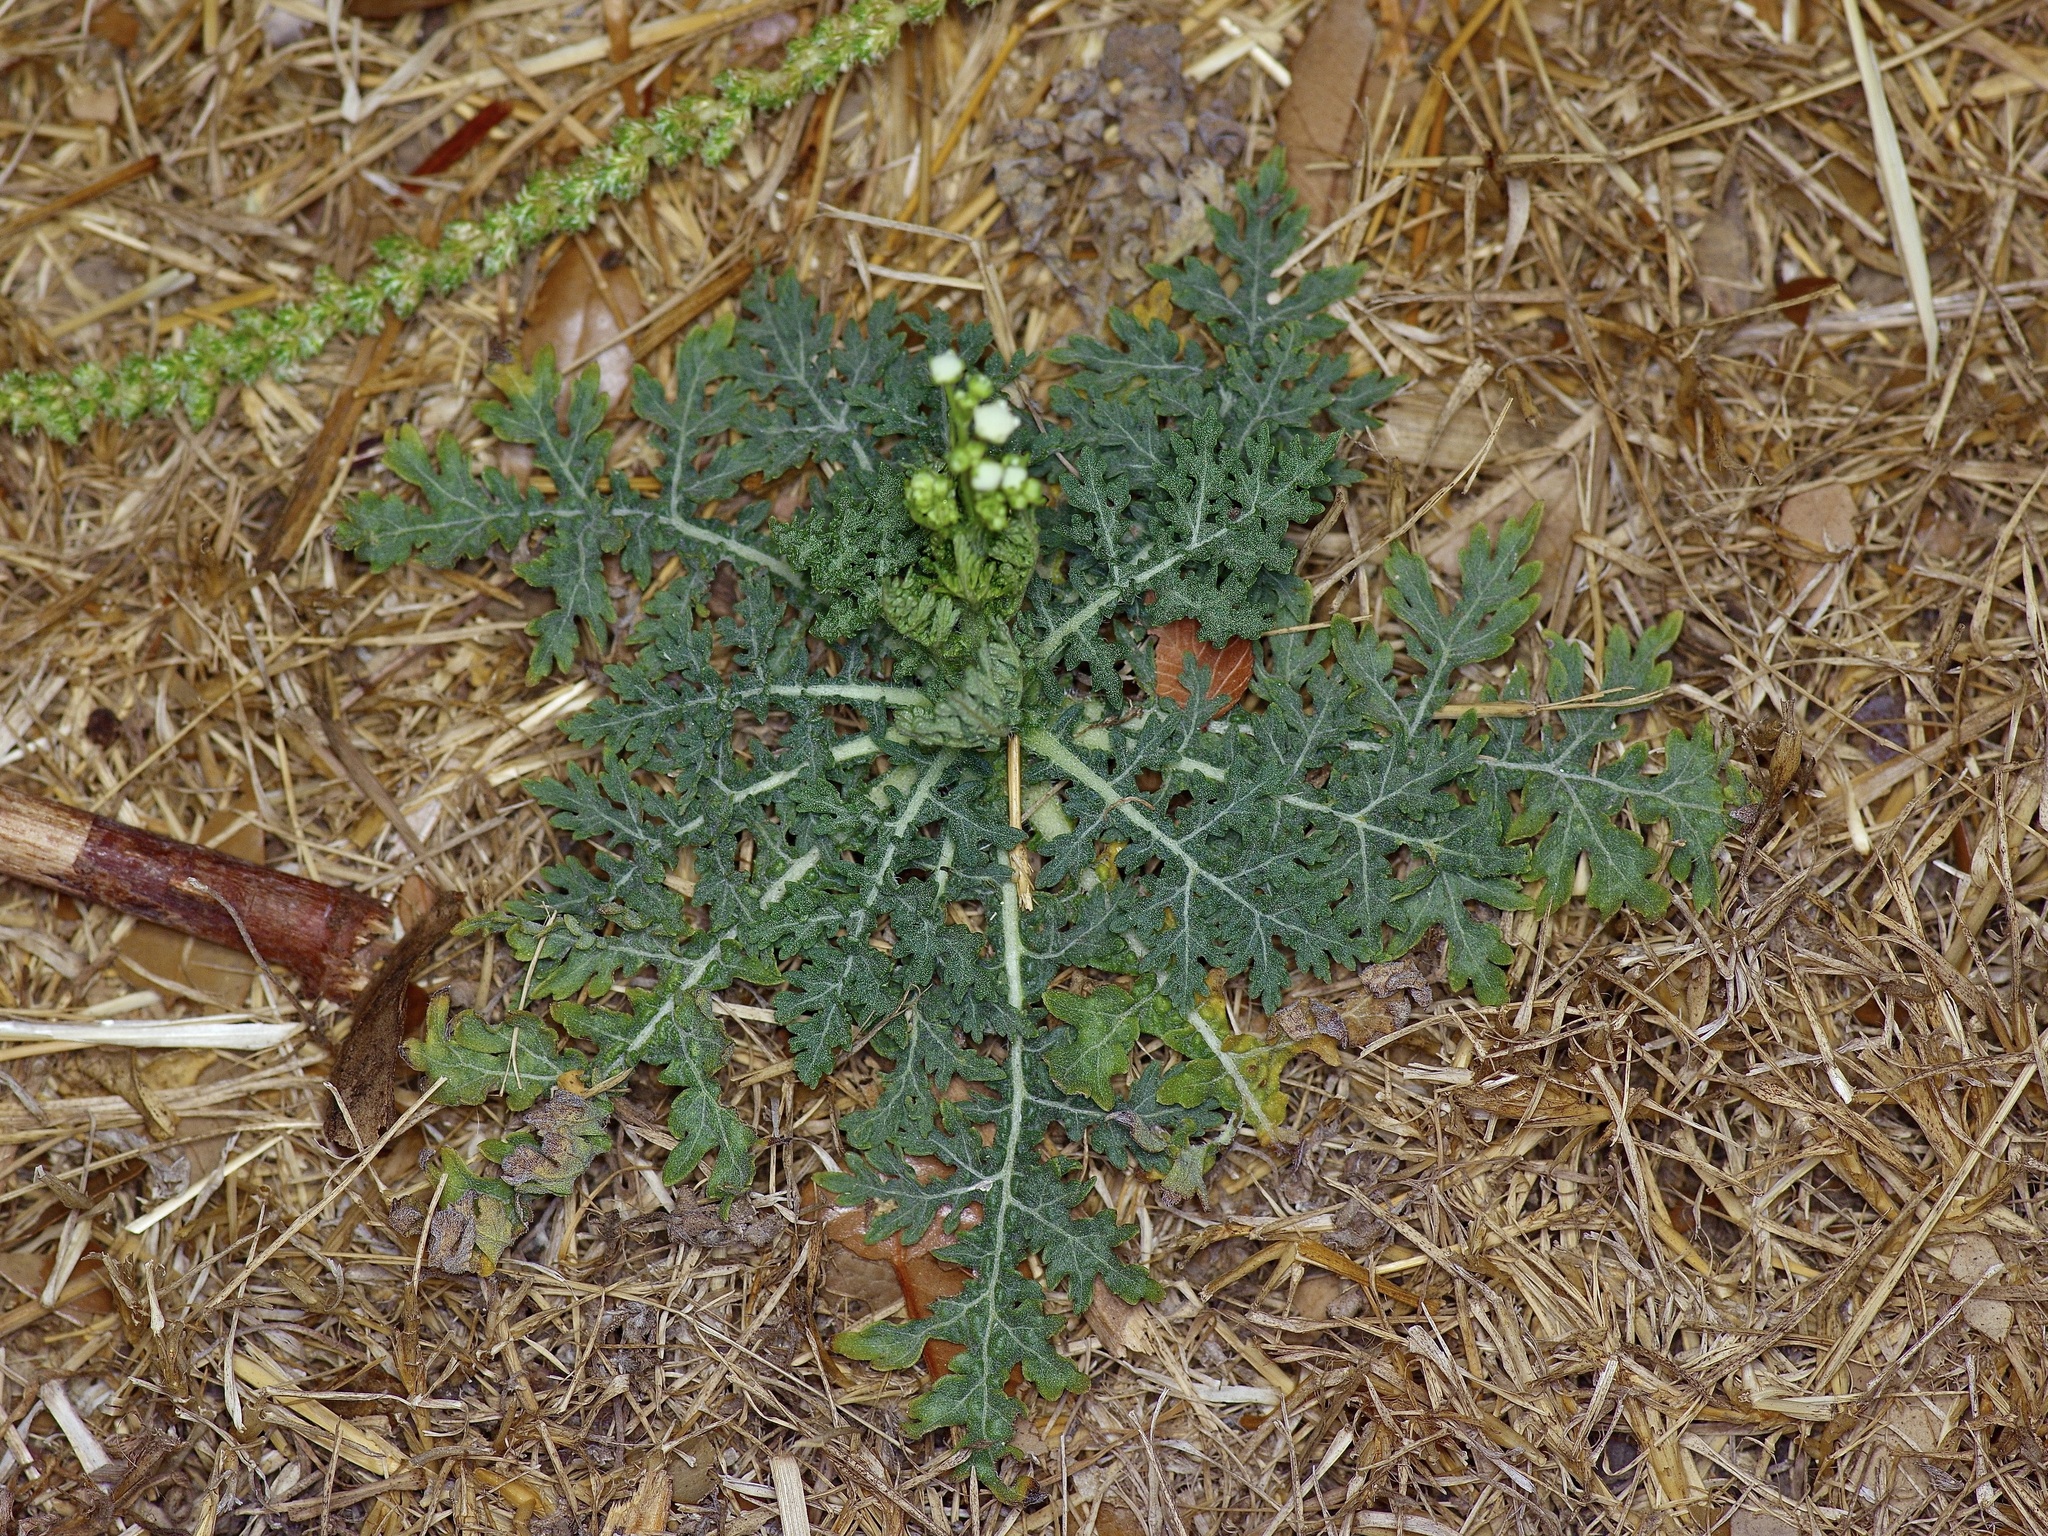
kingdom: Plantae
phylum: Tracheophyta
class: Magnoliopsida
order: Asterales
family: Asteraceae
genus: Parthenium
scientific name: Parthenium hysterophorus
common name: Santa maria feverfew
